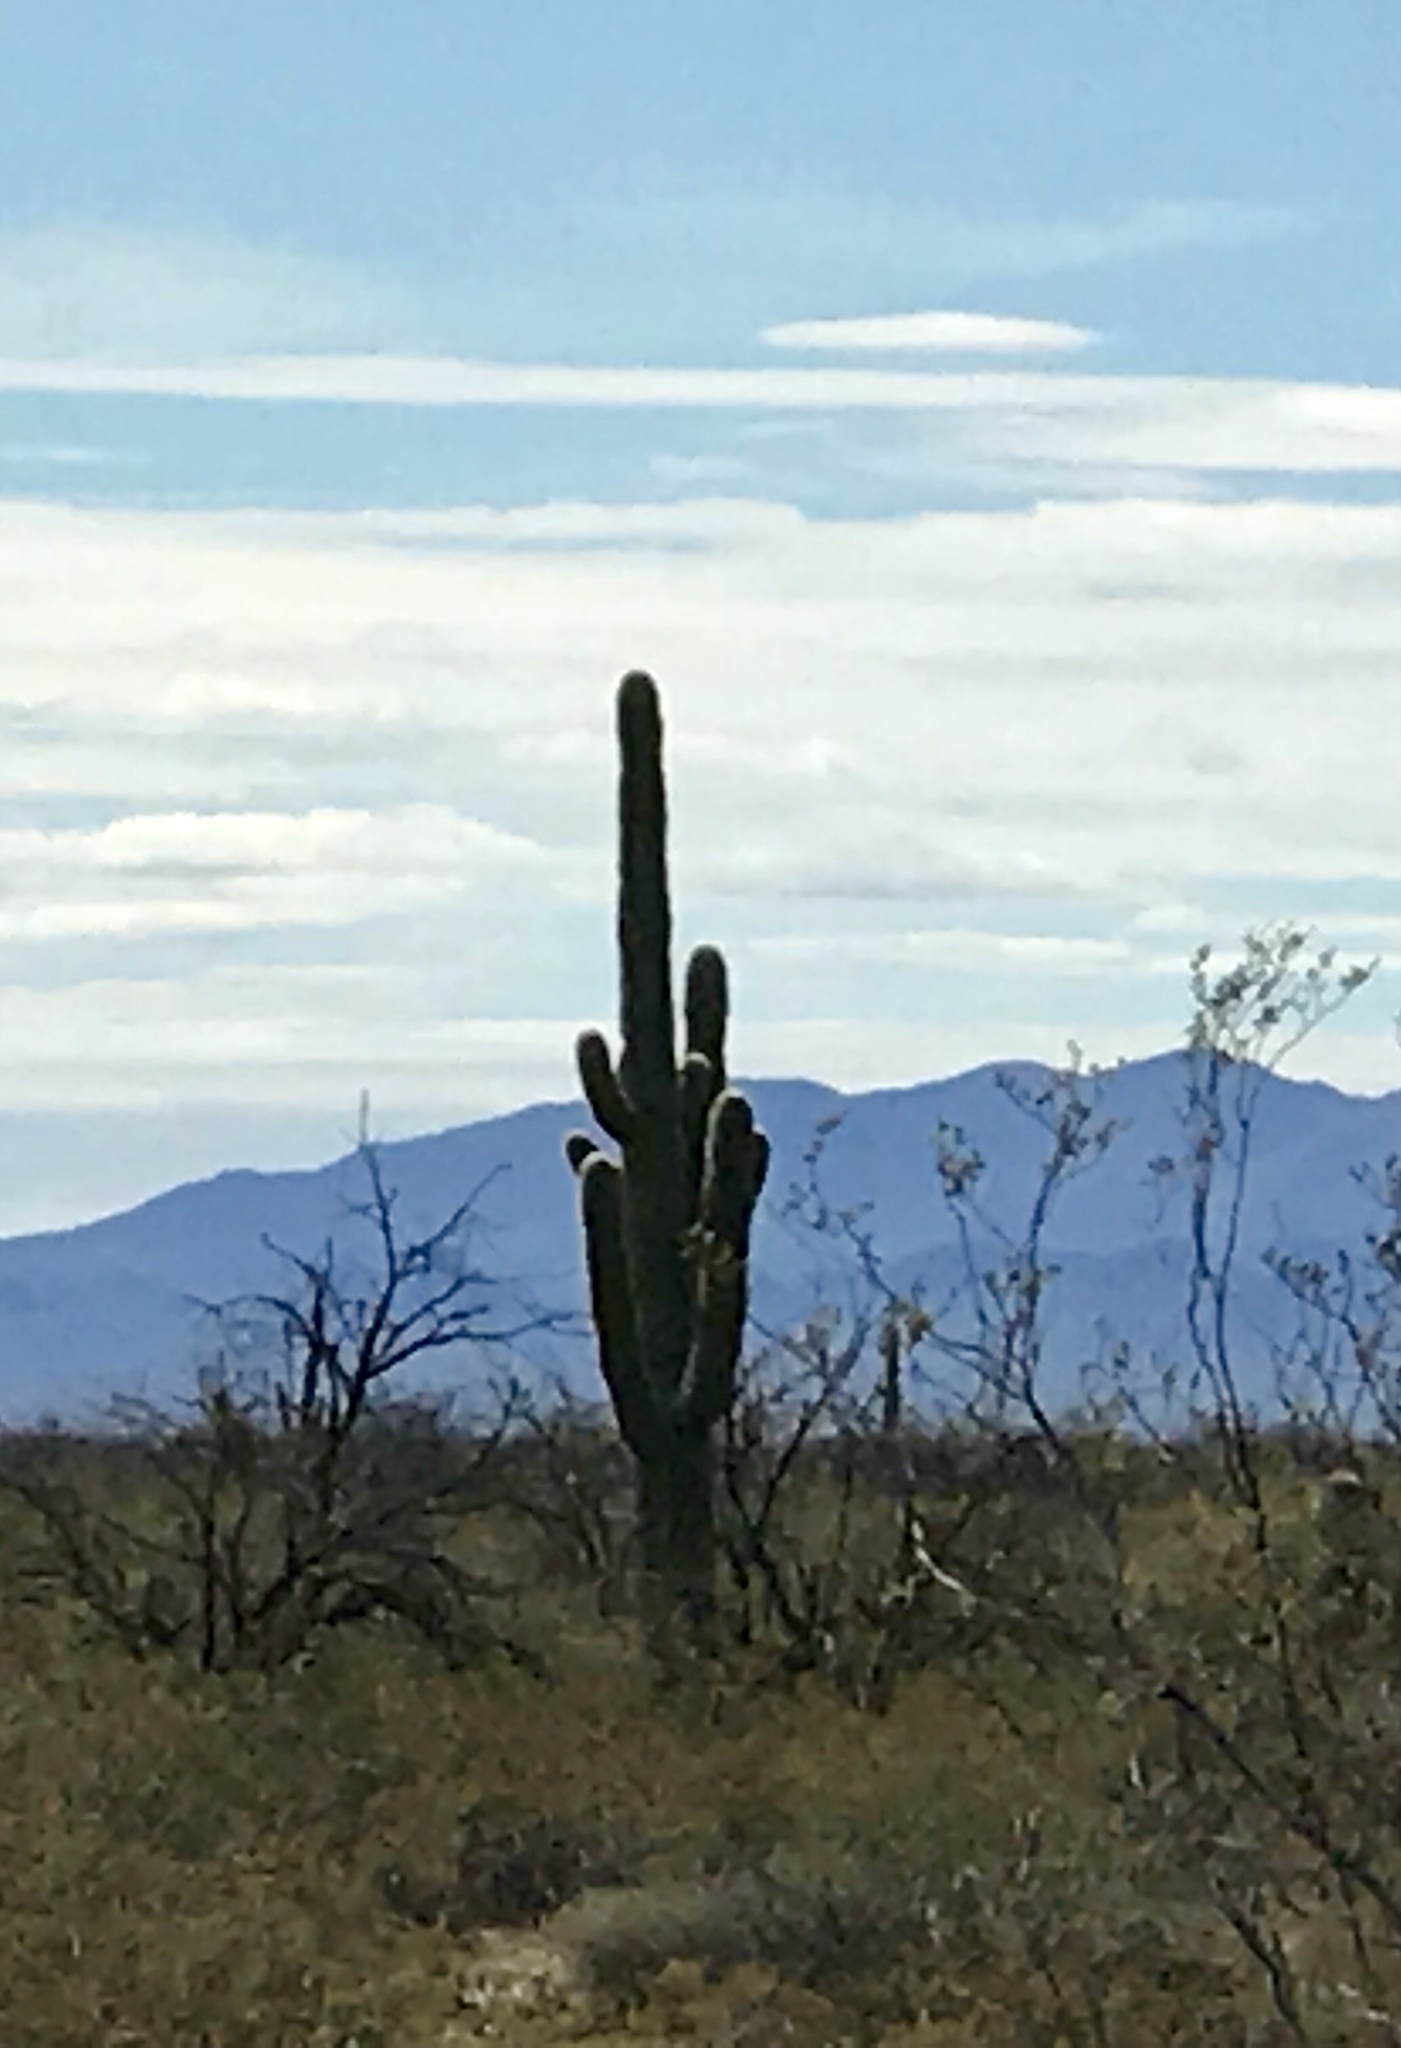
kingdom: Plantae
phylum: Tracheophyta
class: Magnoliopsida
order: Caryophyllales
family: Cactaceae
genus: Carnegiea
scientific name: Carnegiea gigantea
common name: Saguaro
